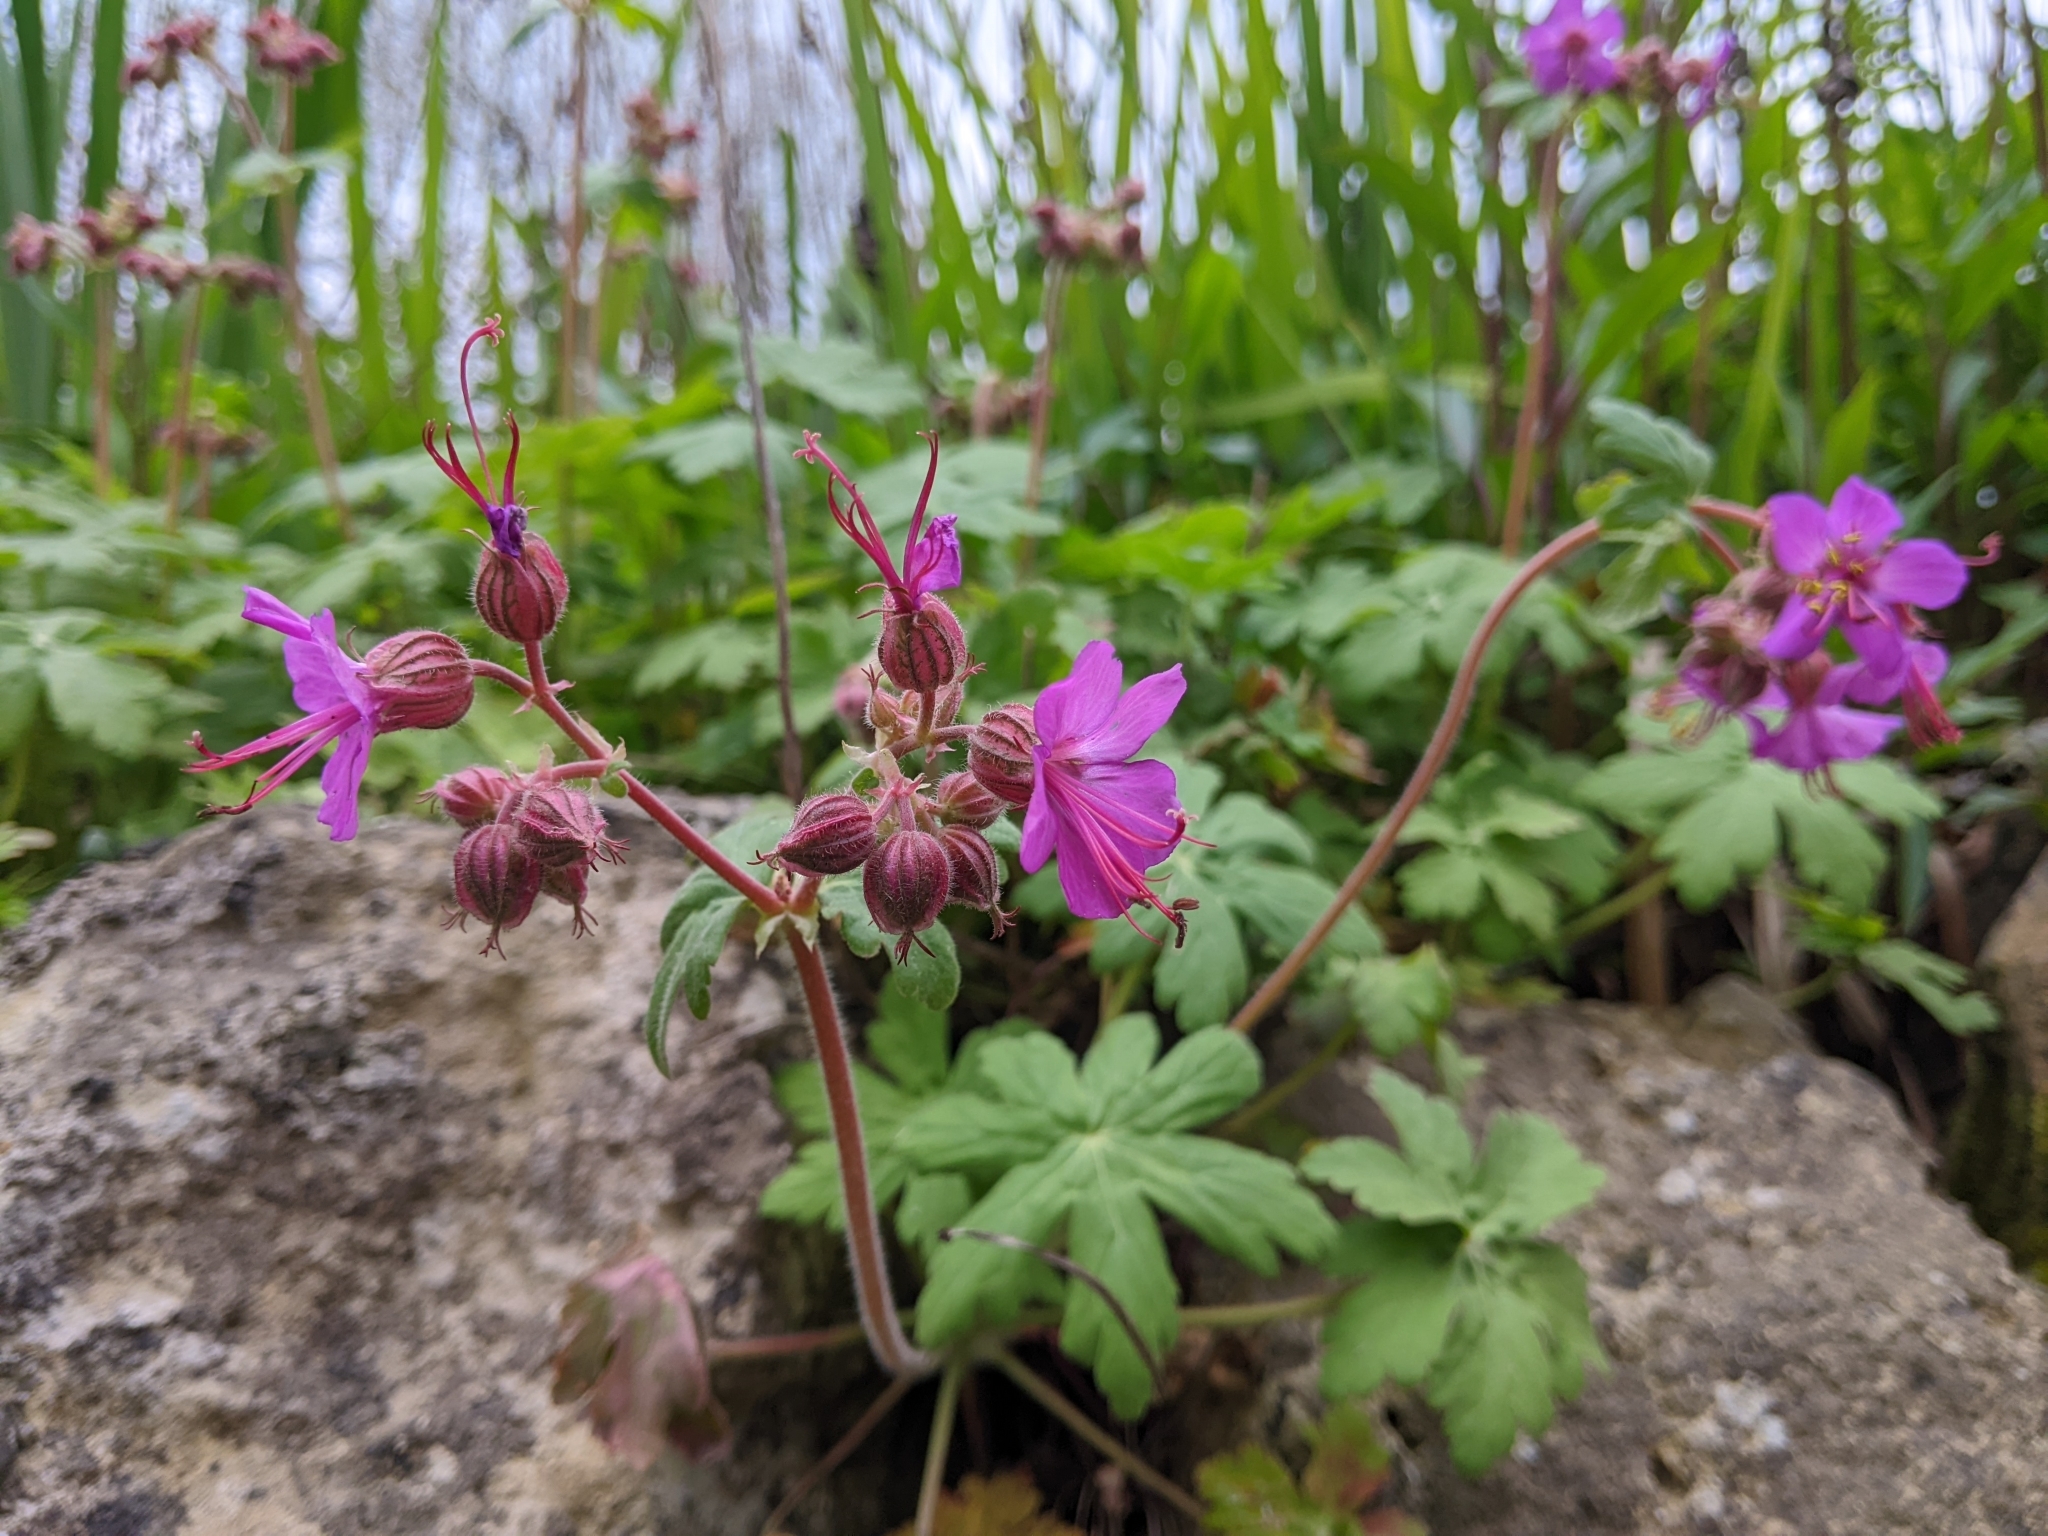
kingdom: Plantae
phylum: Tracheophyta
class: Magnoliopsida
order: Geraniales
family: Geraniaceae
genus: Geranium
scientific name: Geranium macrorrhizum
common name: Rock crane's-bill
